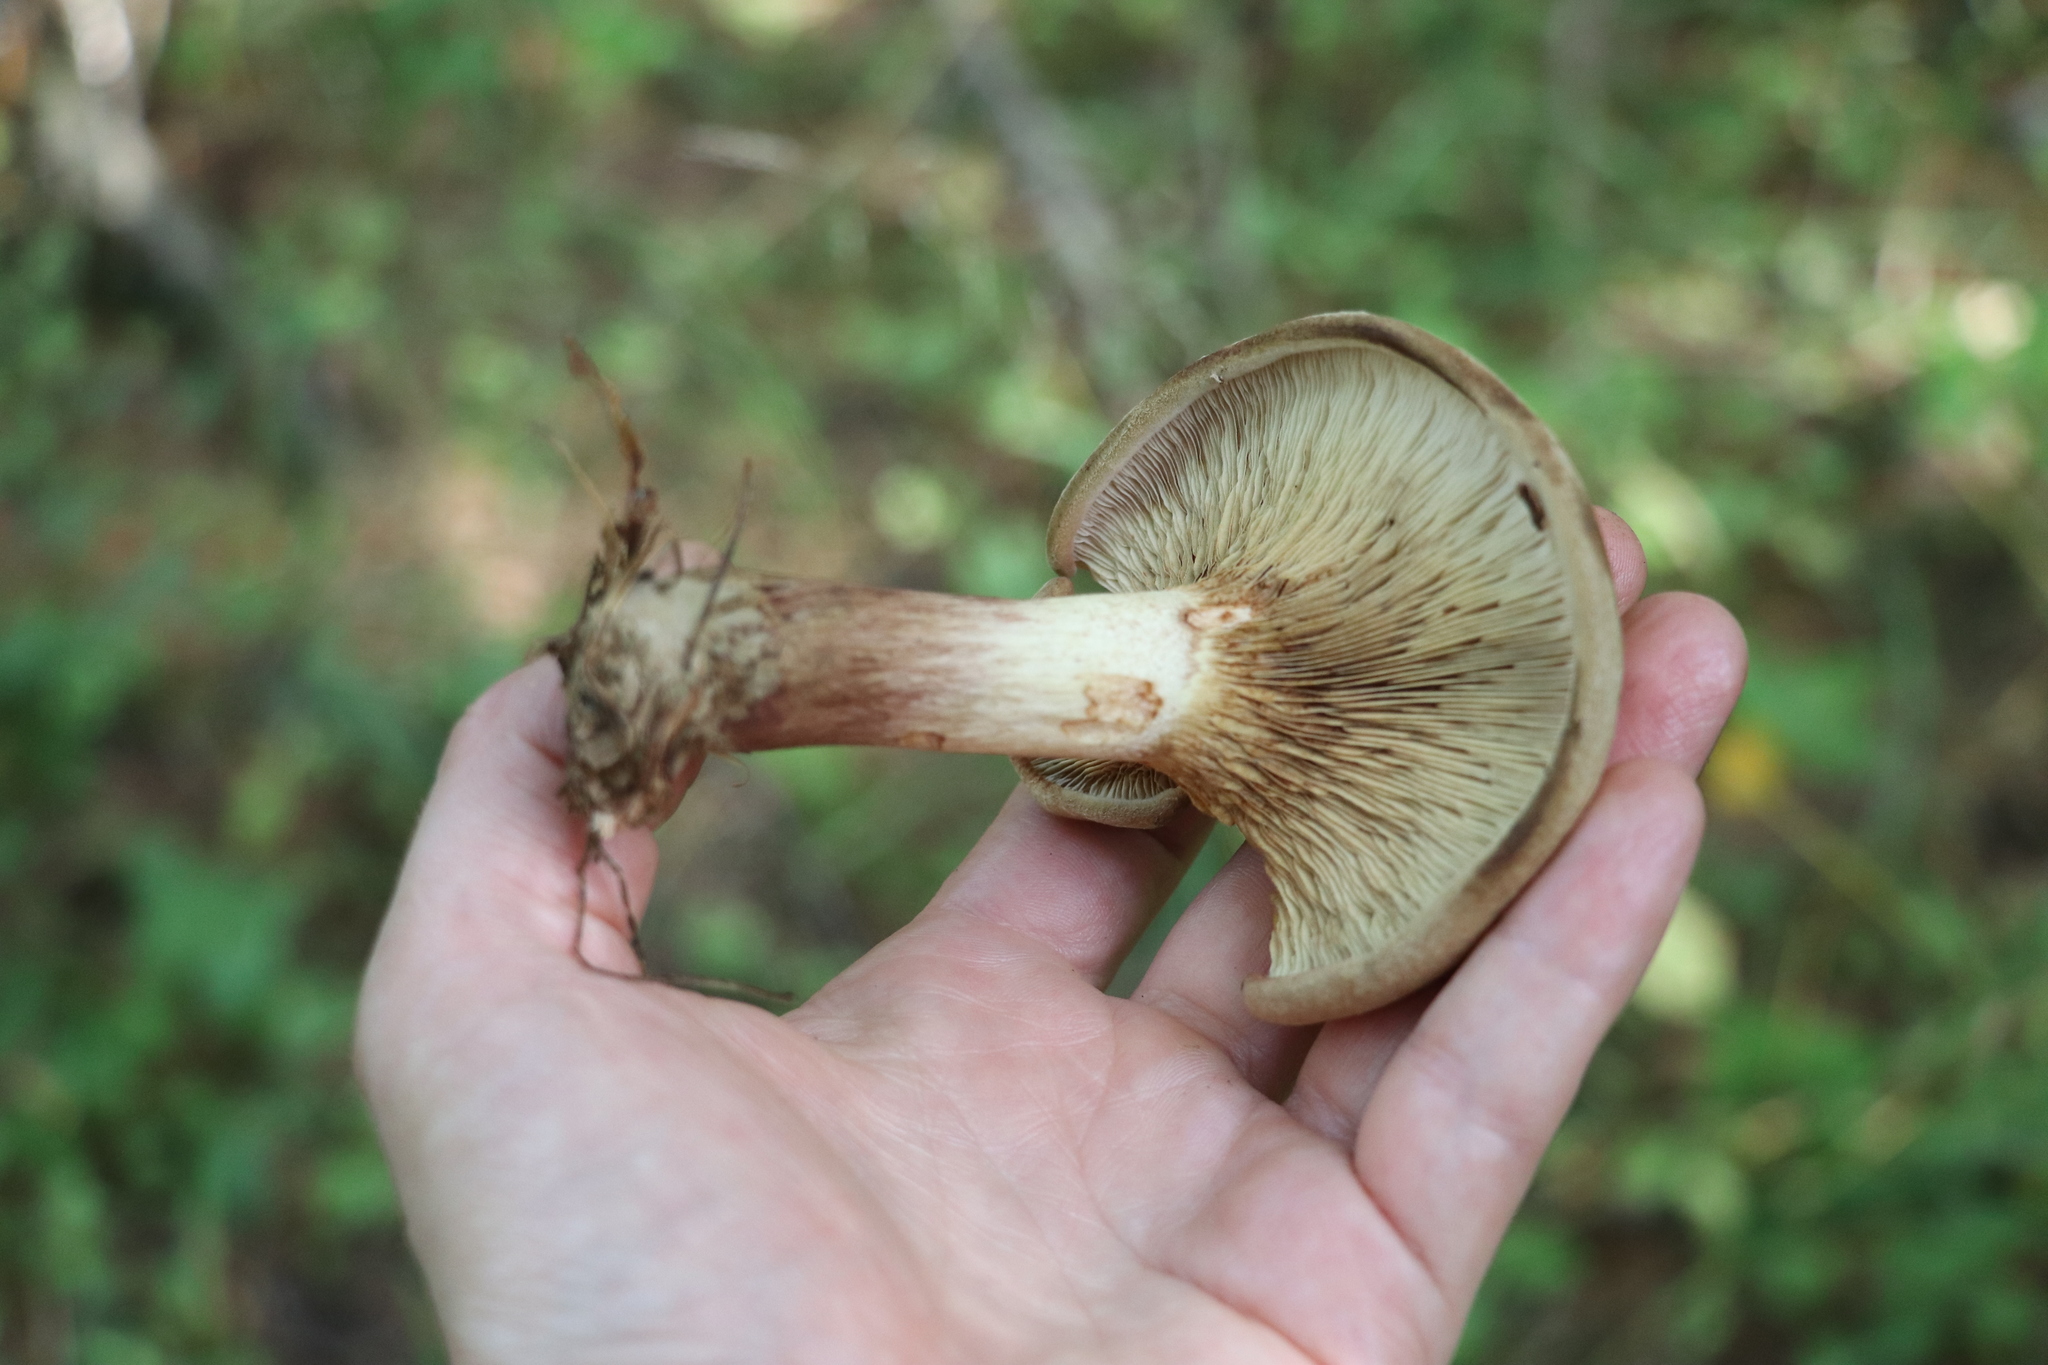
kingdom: Fungi
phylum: Basidiomycota
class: Agaricomycetes
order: Boletales
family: Paxillaceae
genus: Paxillus
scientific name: Paxillus involutus
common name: Brown roll rim
